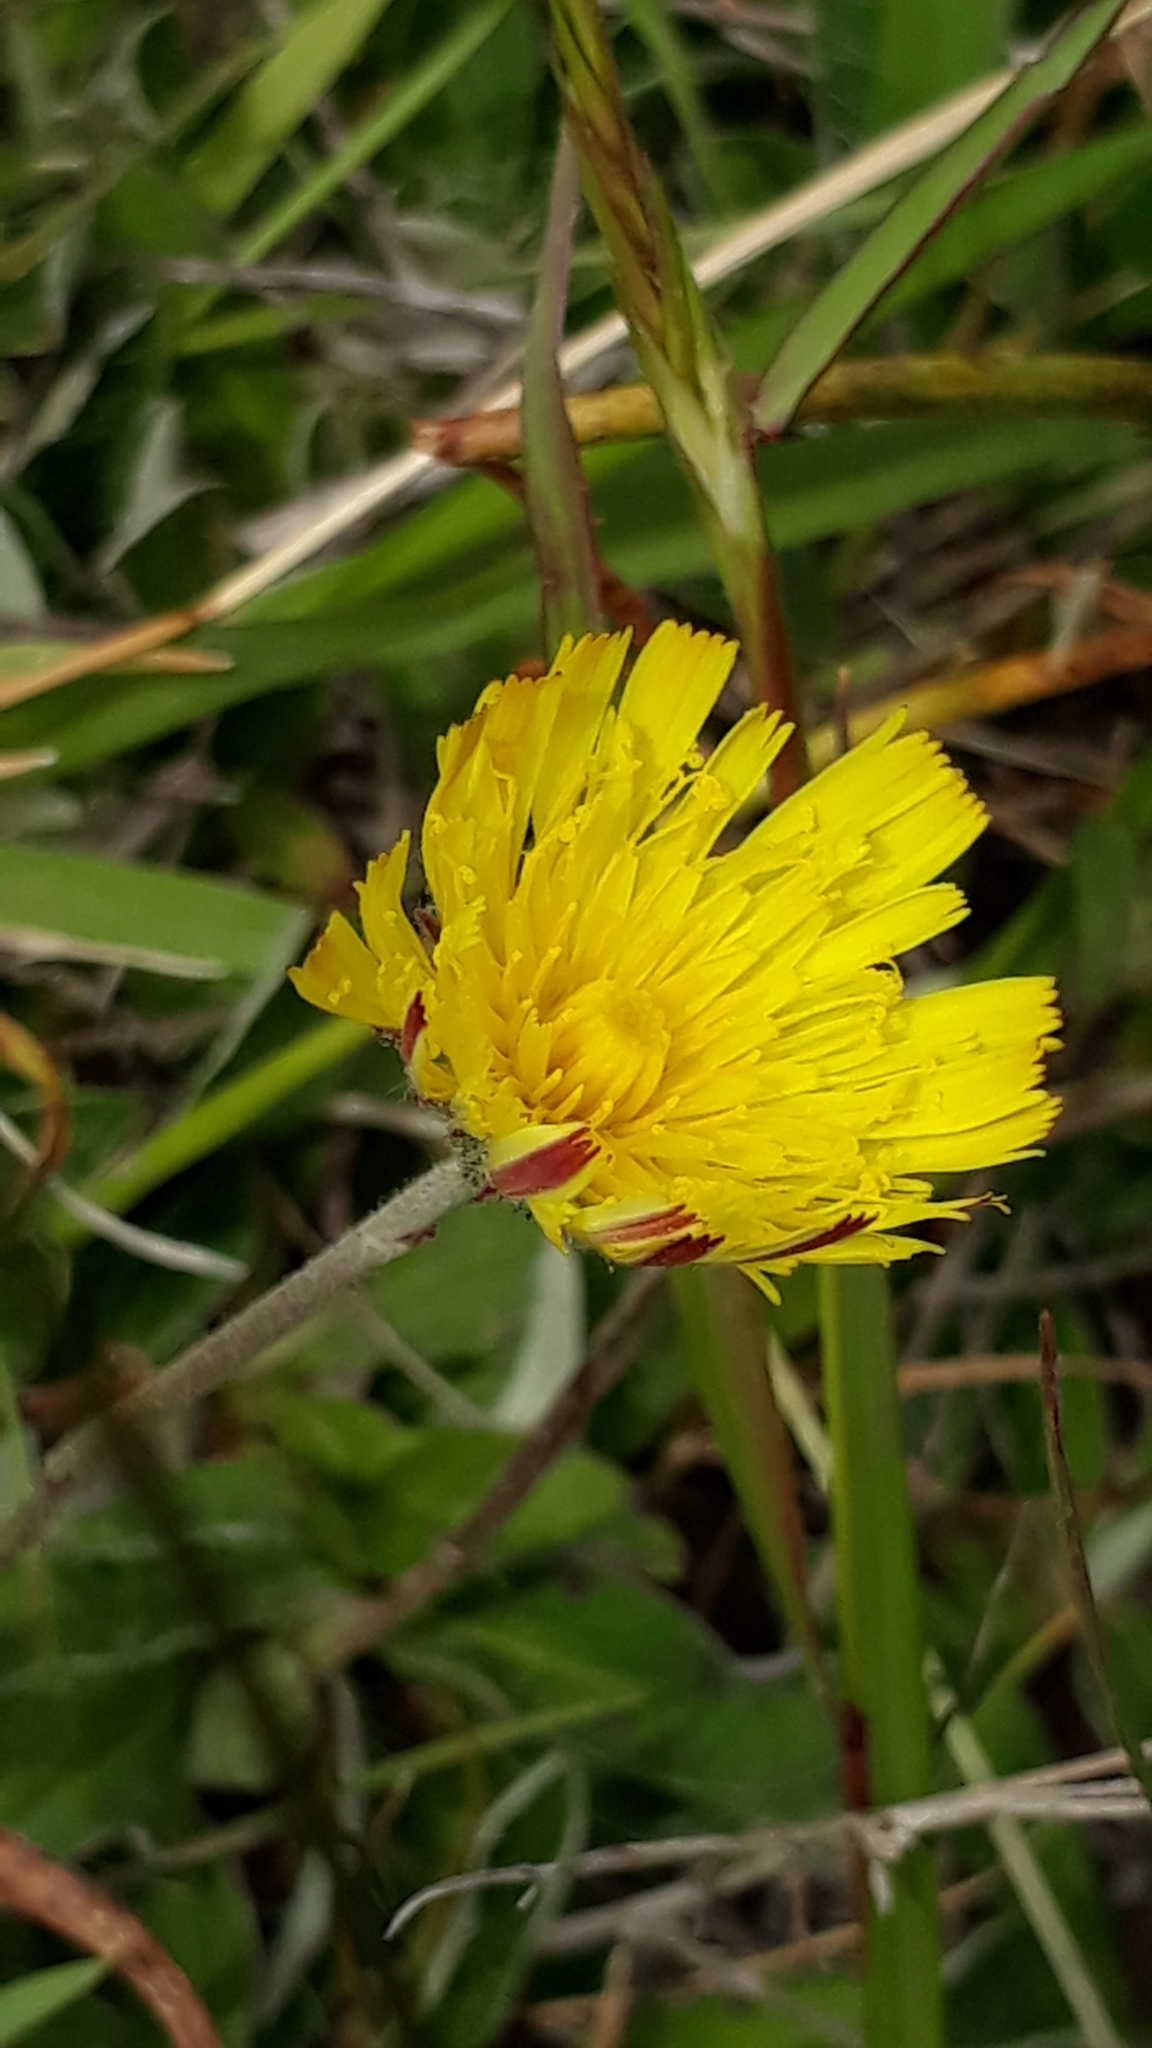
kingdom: Plantae
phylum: Tracheophyta
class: Magnoliopsida
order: Asterales
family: Asteraceae
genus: Pilosella
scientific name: Pilosella officinarum
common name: Mouse-ear hawkweed
